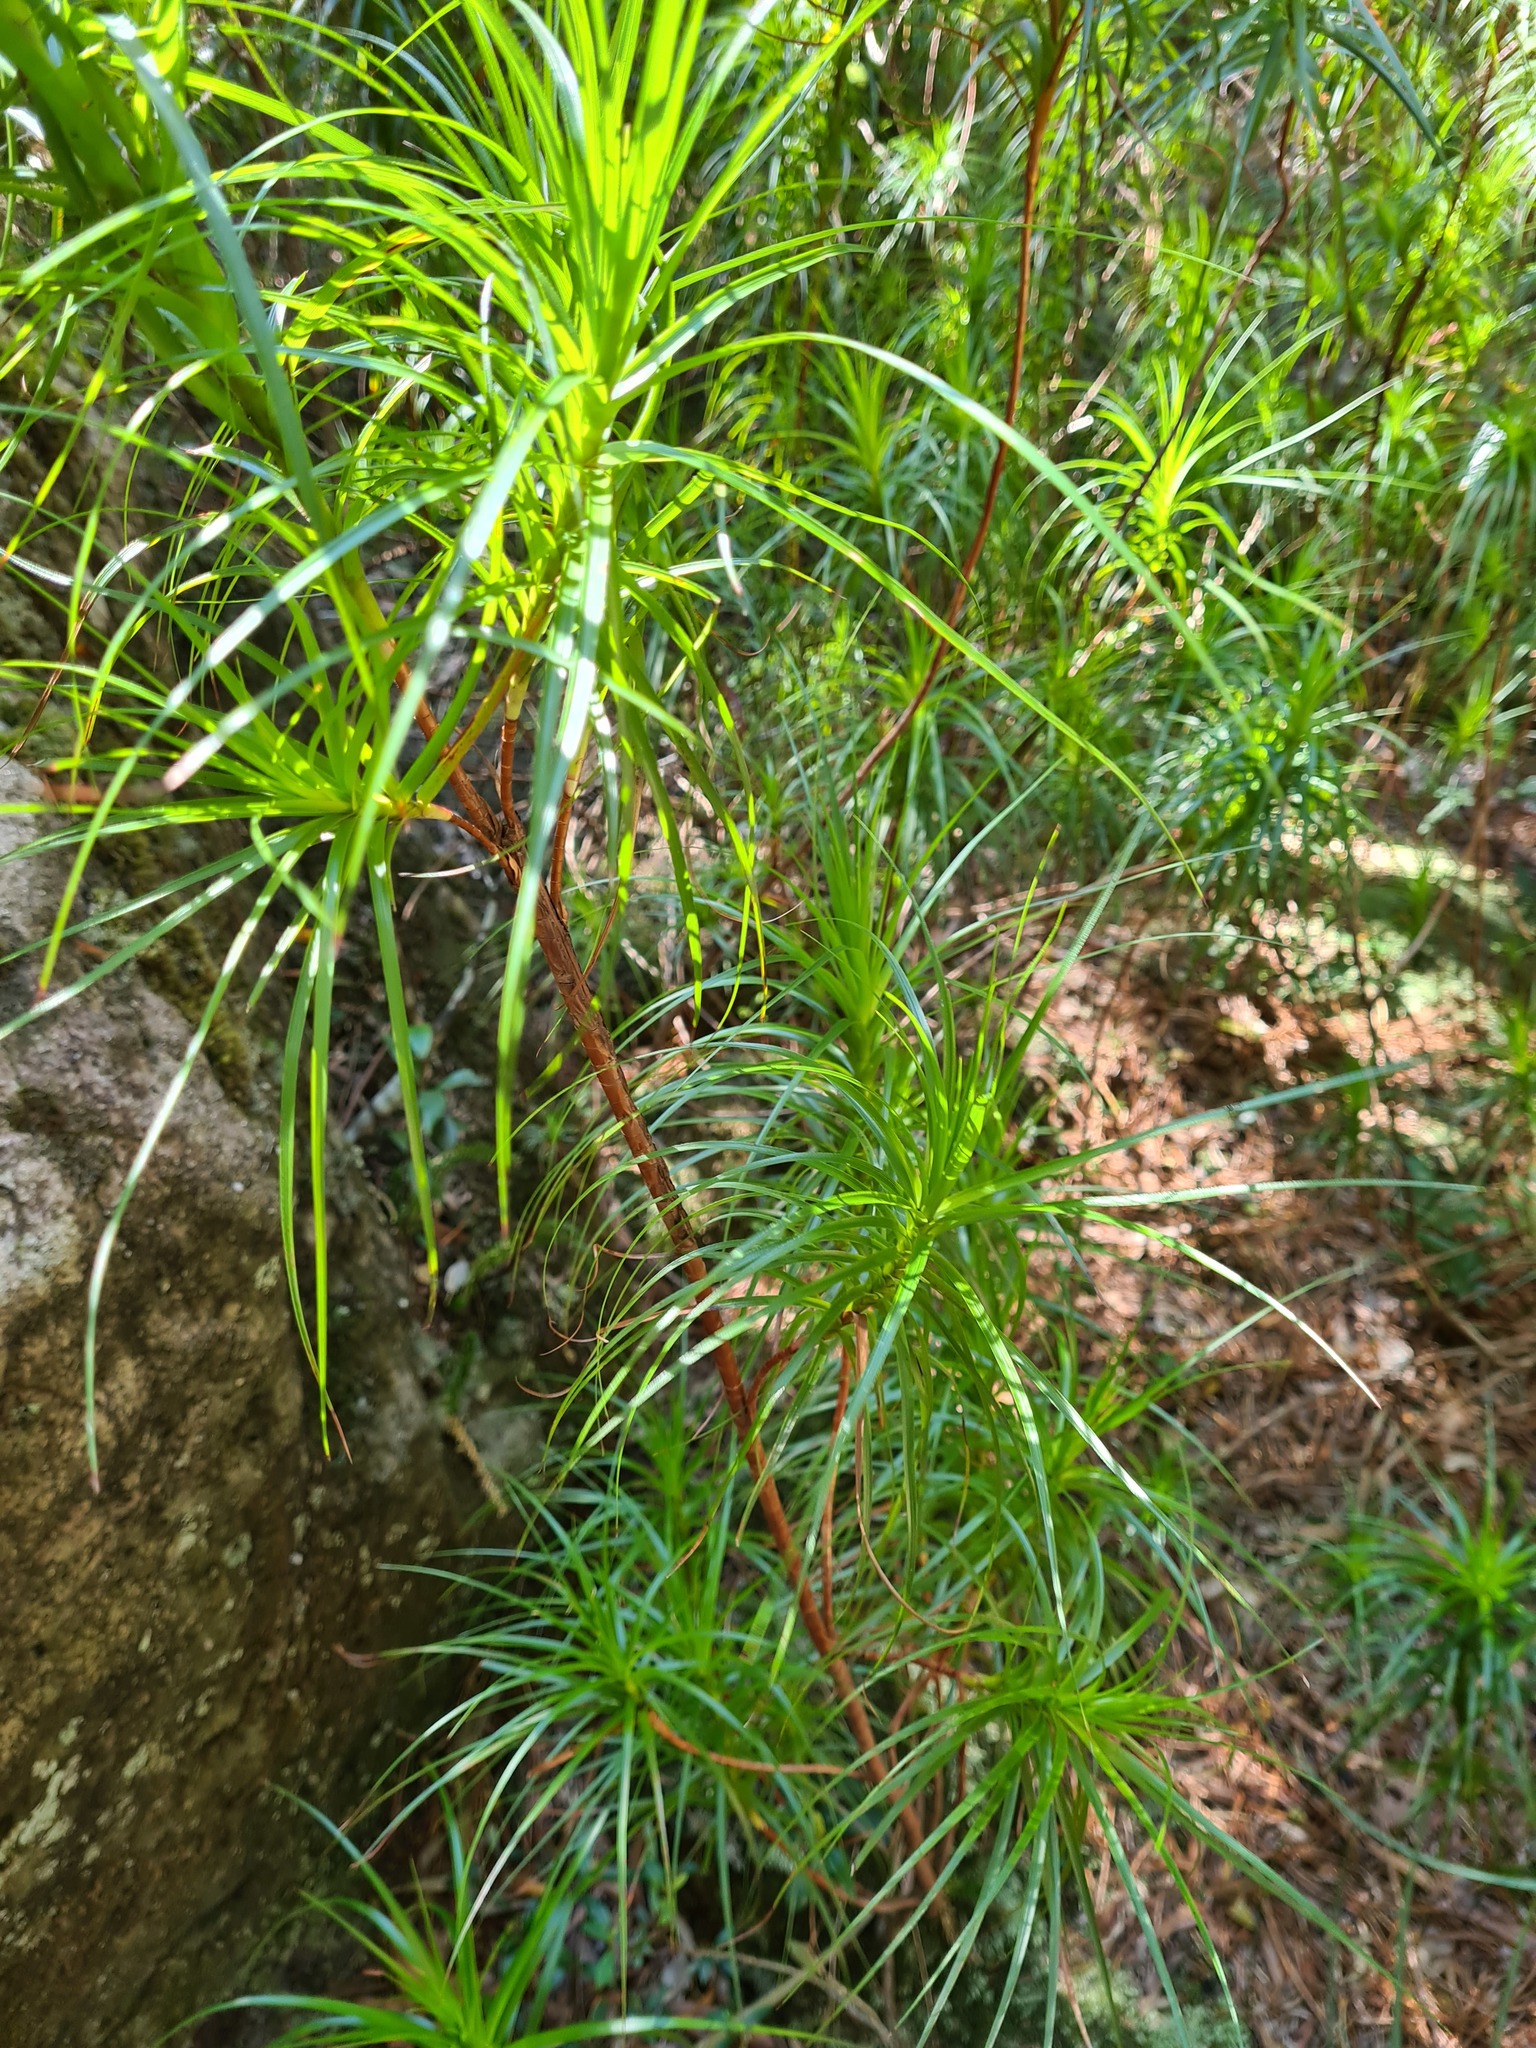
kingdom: Plantae
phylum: Tracheophyta
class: Magnoliopsida
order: Ericales
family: Ericaceae
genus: Dracophyllum
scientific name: Dracophyllum secundum
